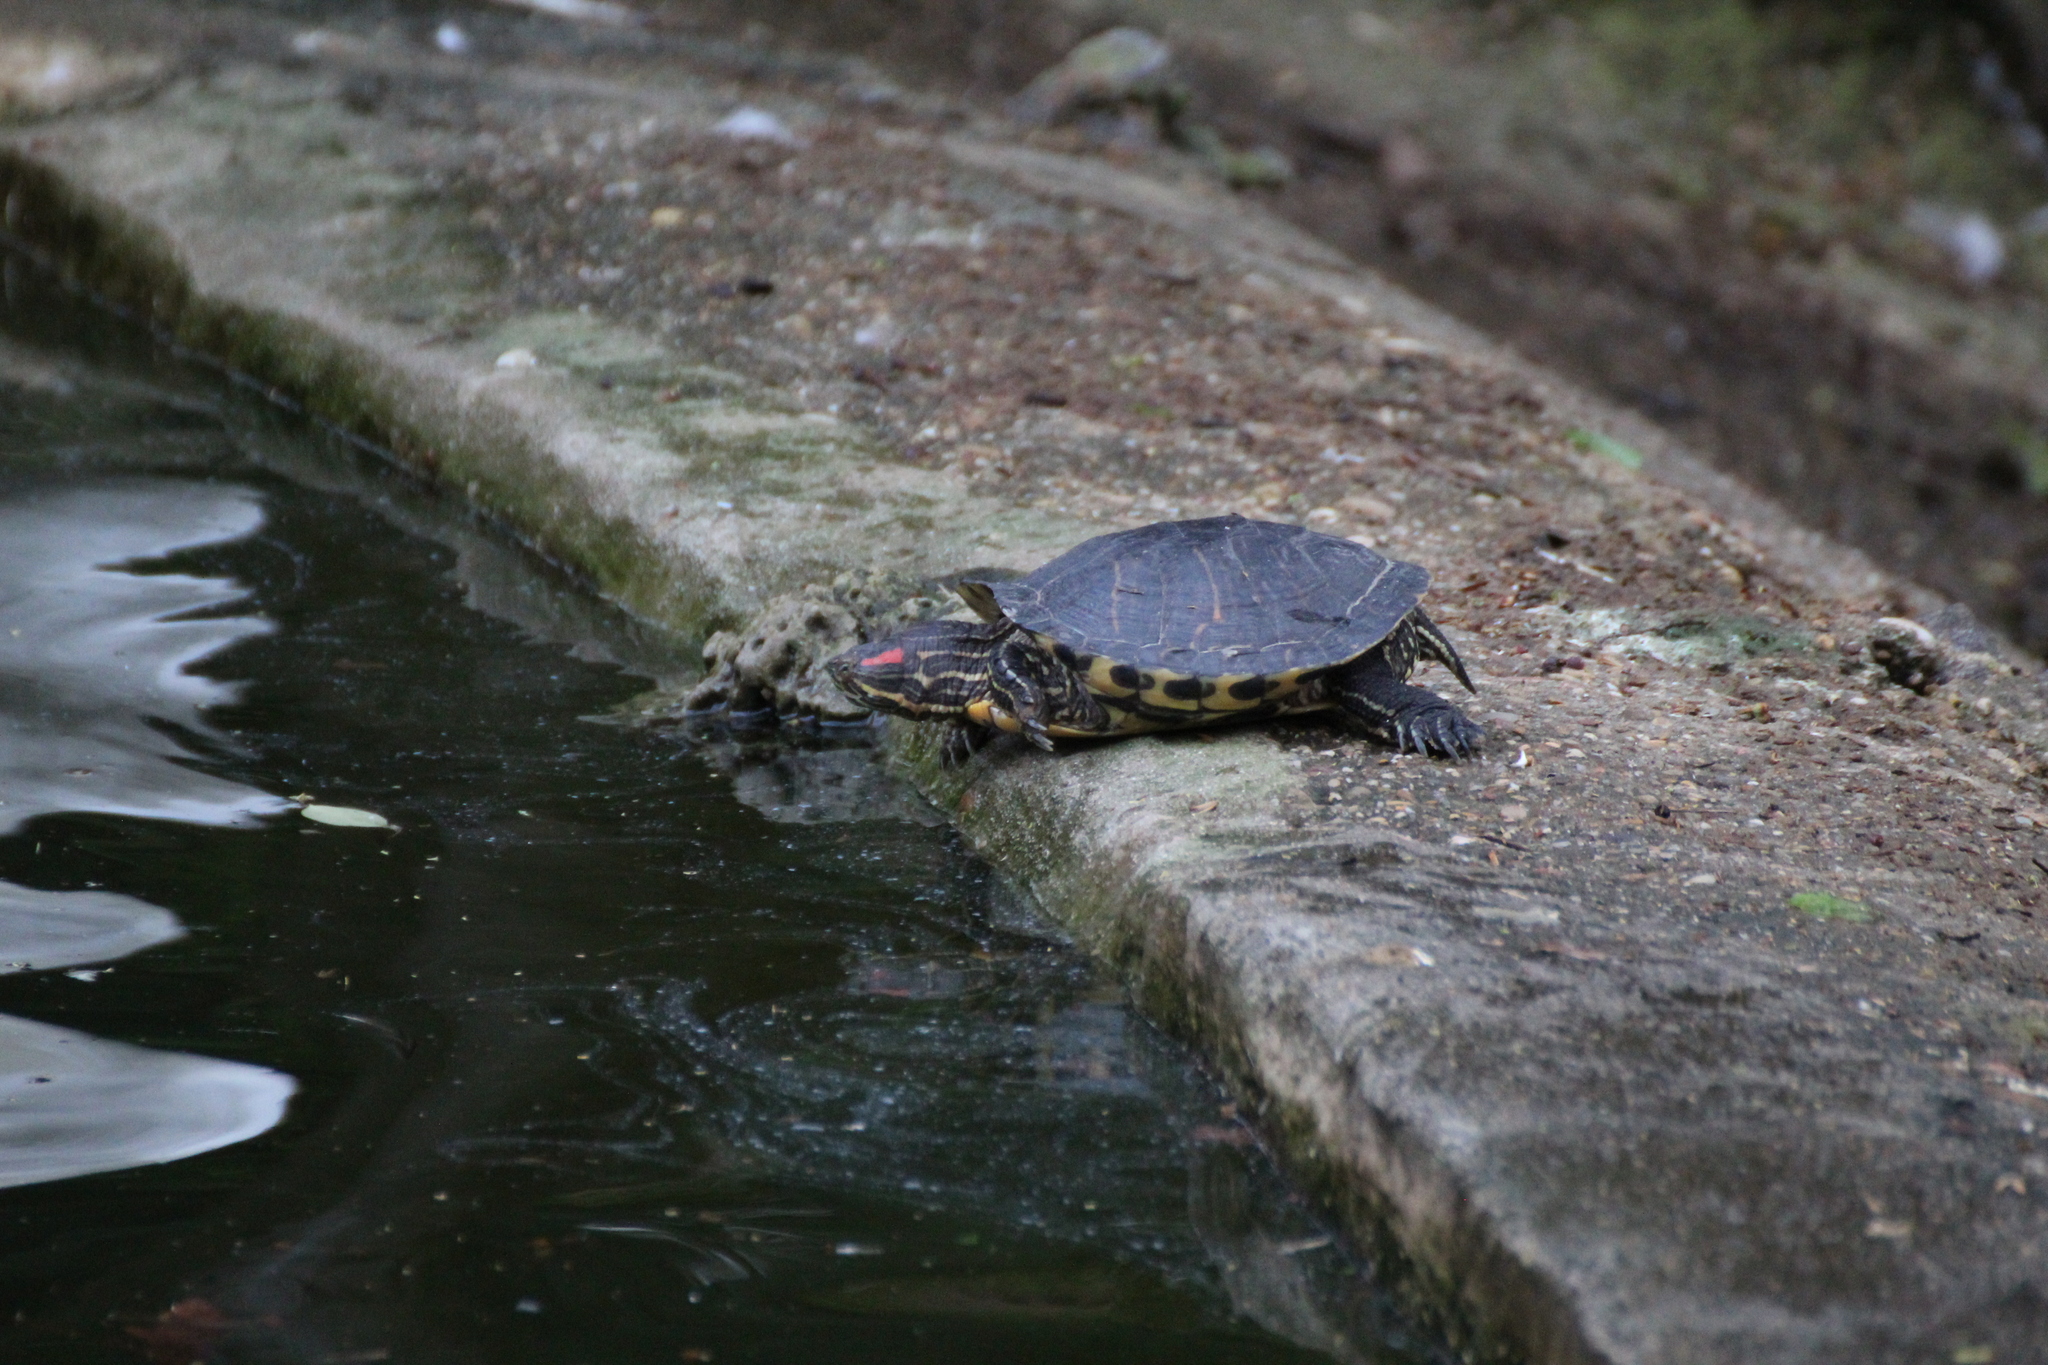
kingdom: Animalia
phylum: Chordata
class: Testudines
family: Emydidae
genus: Trachemys
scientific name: Trachemys scripta
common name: Slider
